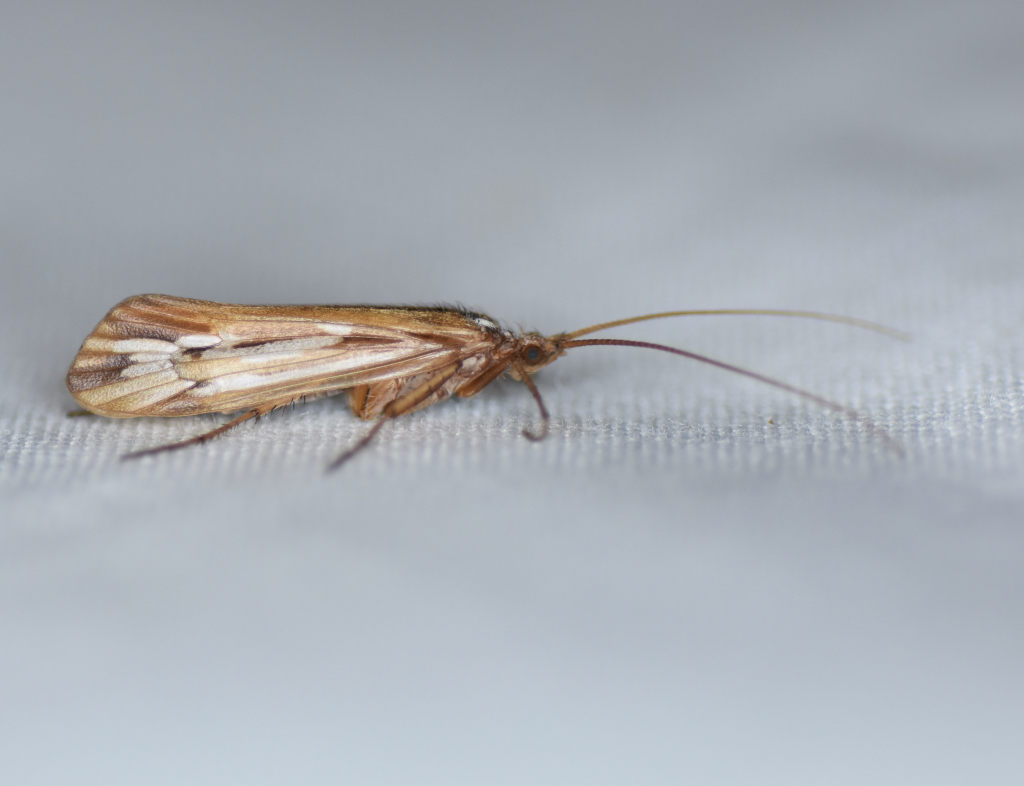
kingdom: Animalia
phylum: Arthropoda
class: Insecta
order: Trichoptera
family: Limnephilidae
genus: Limnephilus
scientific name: Limnephilus ornatus
